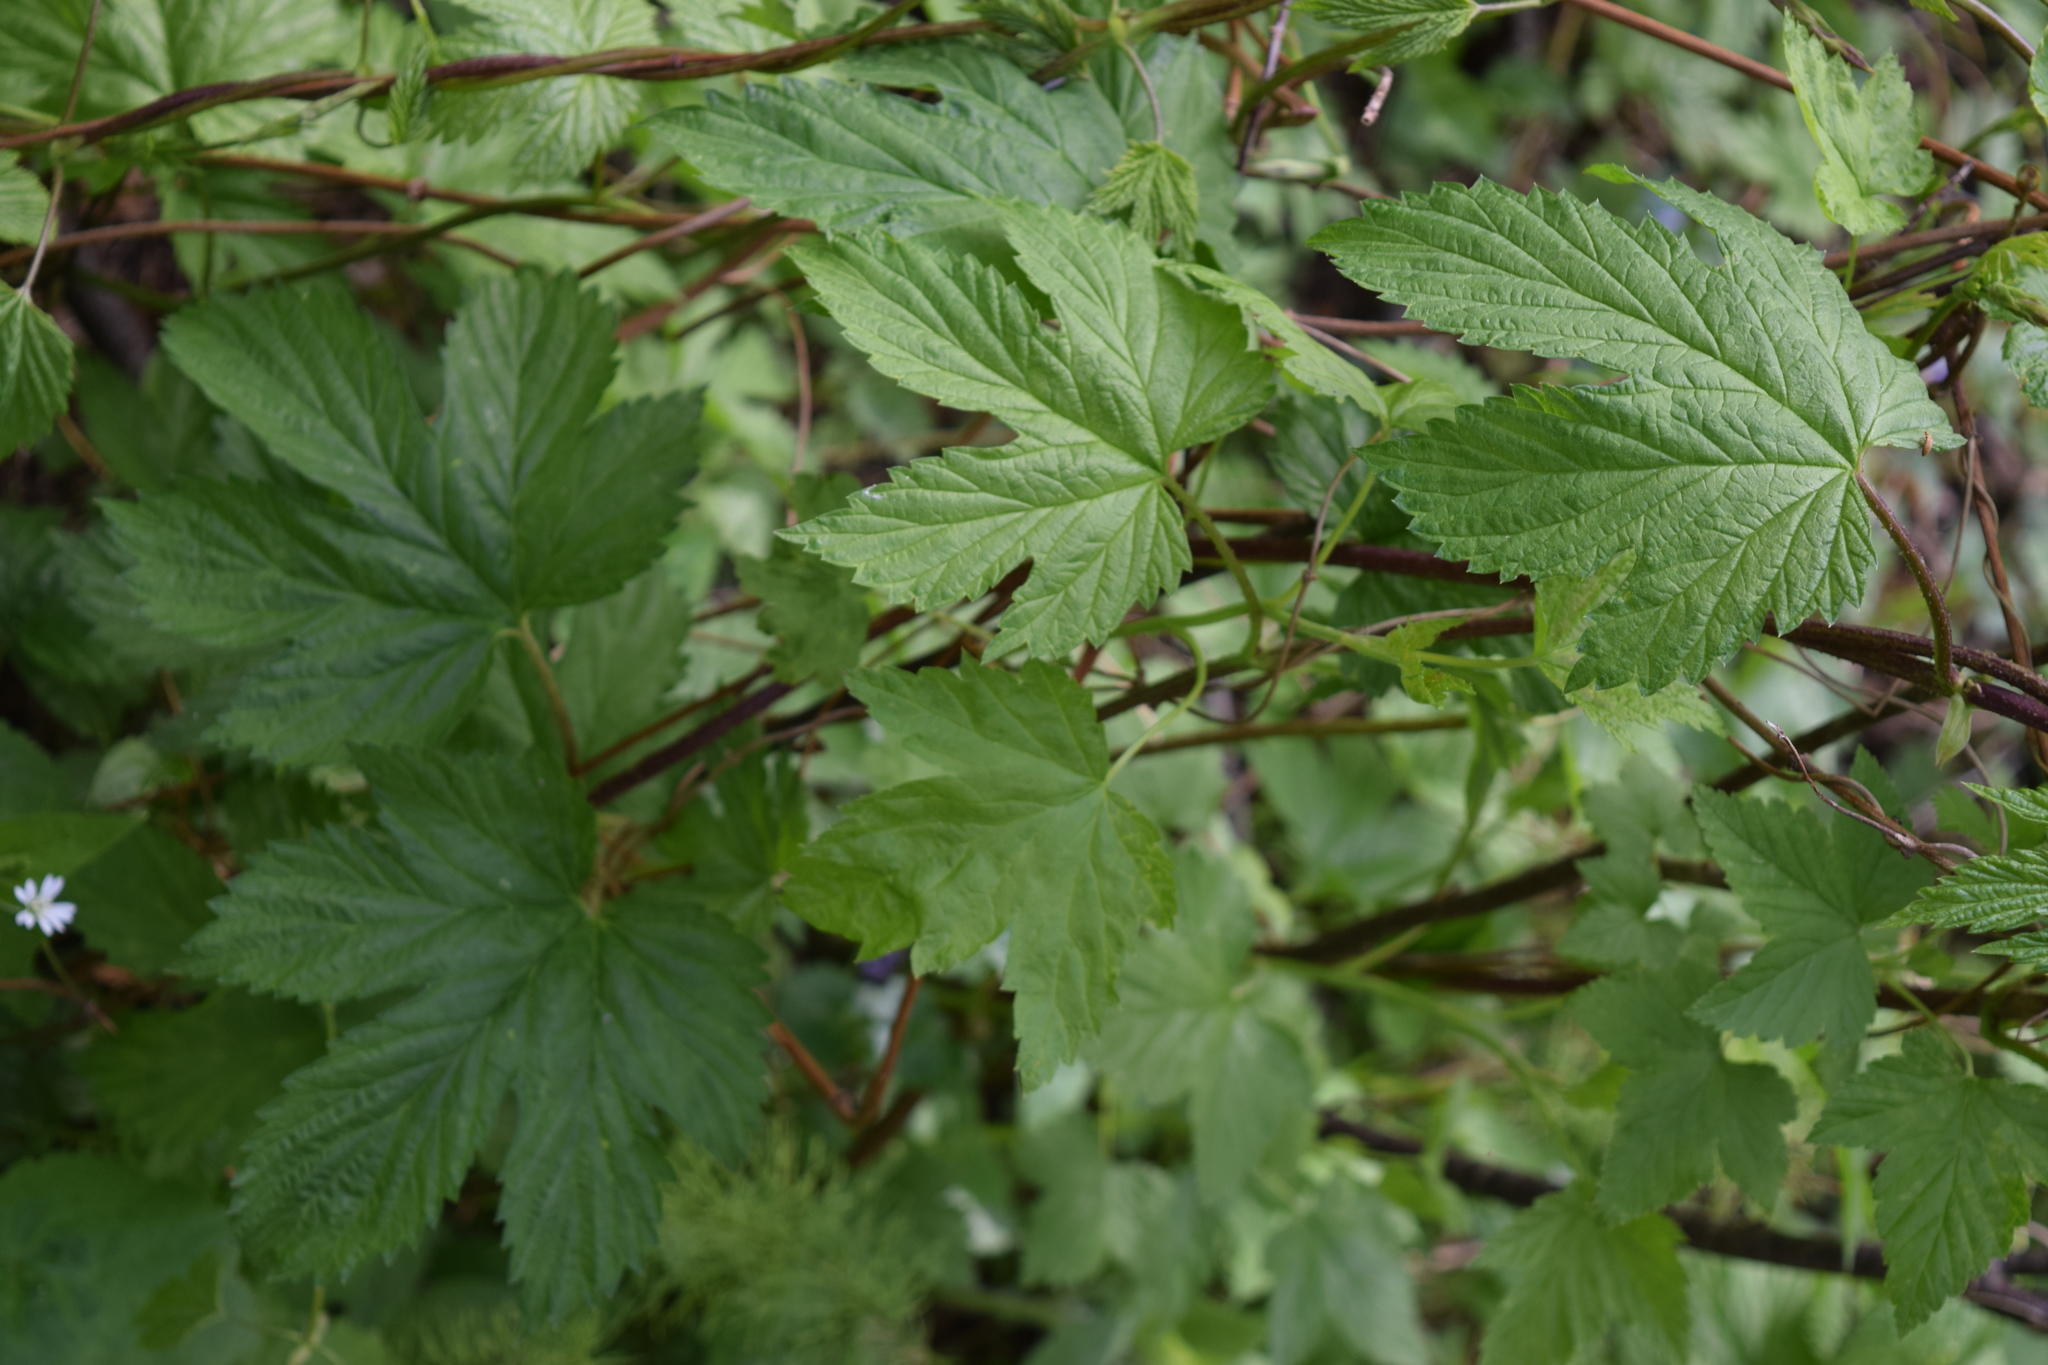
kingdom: Plantae
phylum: Tracheophyta
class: Magnoliopsida
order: Rosales
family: Cannabaceae
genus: Humulus
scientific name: Humulus lupulus
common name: Hop
